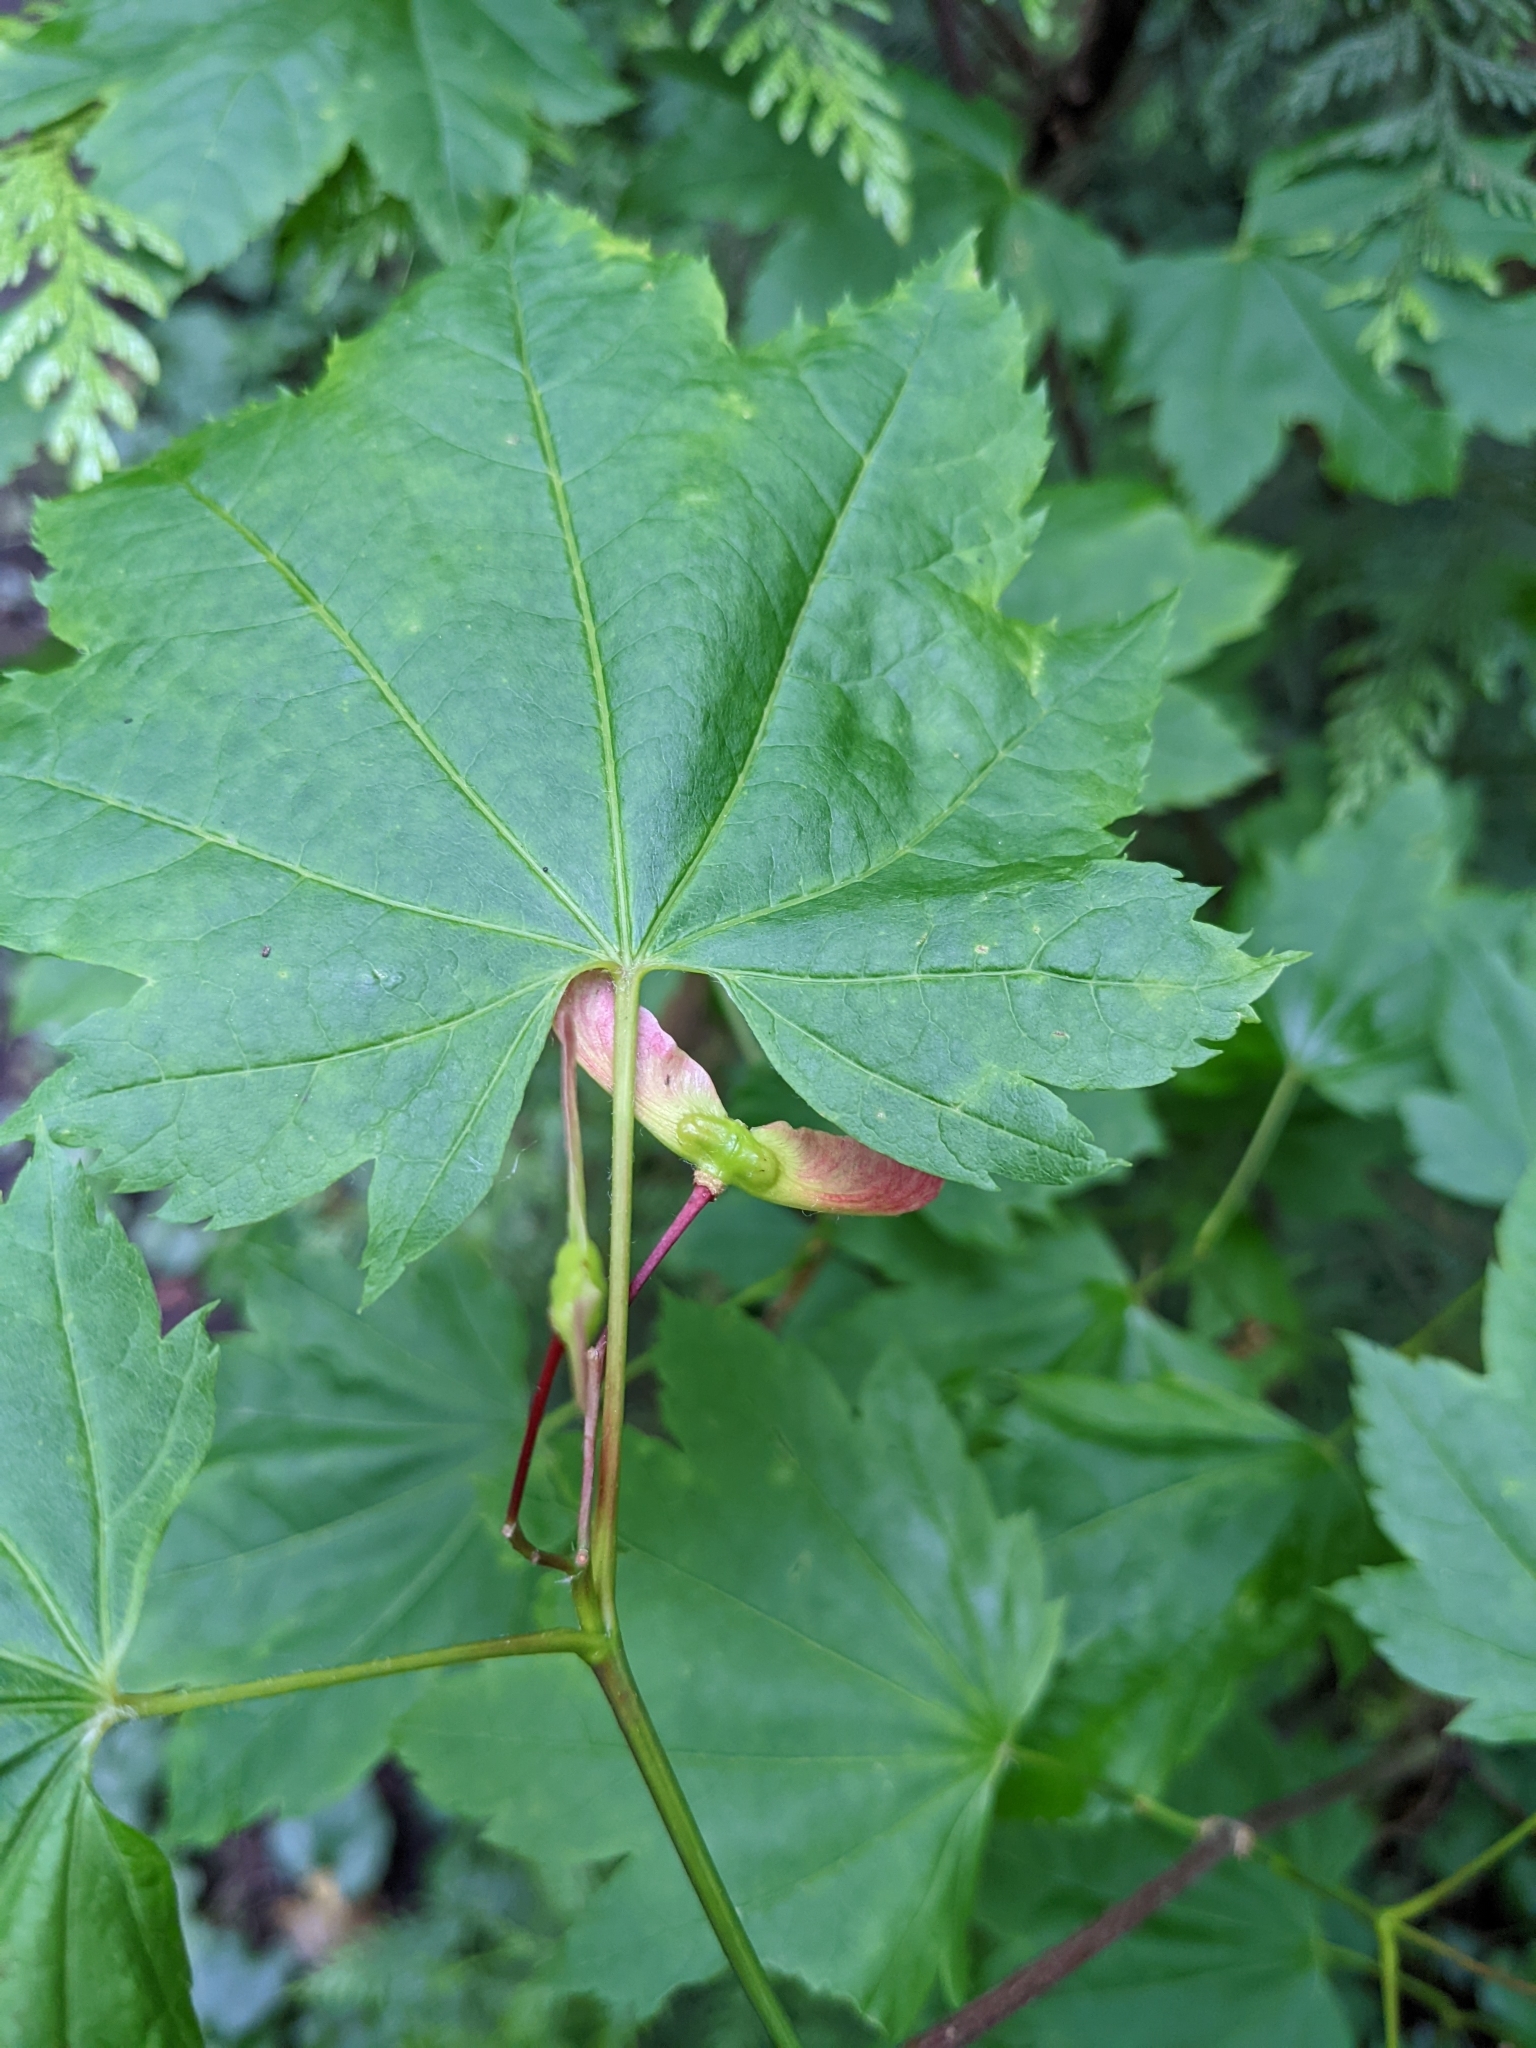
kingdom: Plantae
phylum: Tracheophyta
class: Magnoliopsida
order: Sapindales
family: Sapindaceae
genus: Acer
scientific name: Acer circinatum
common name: Vine maple
